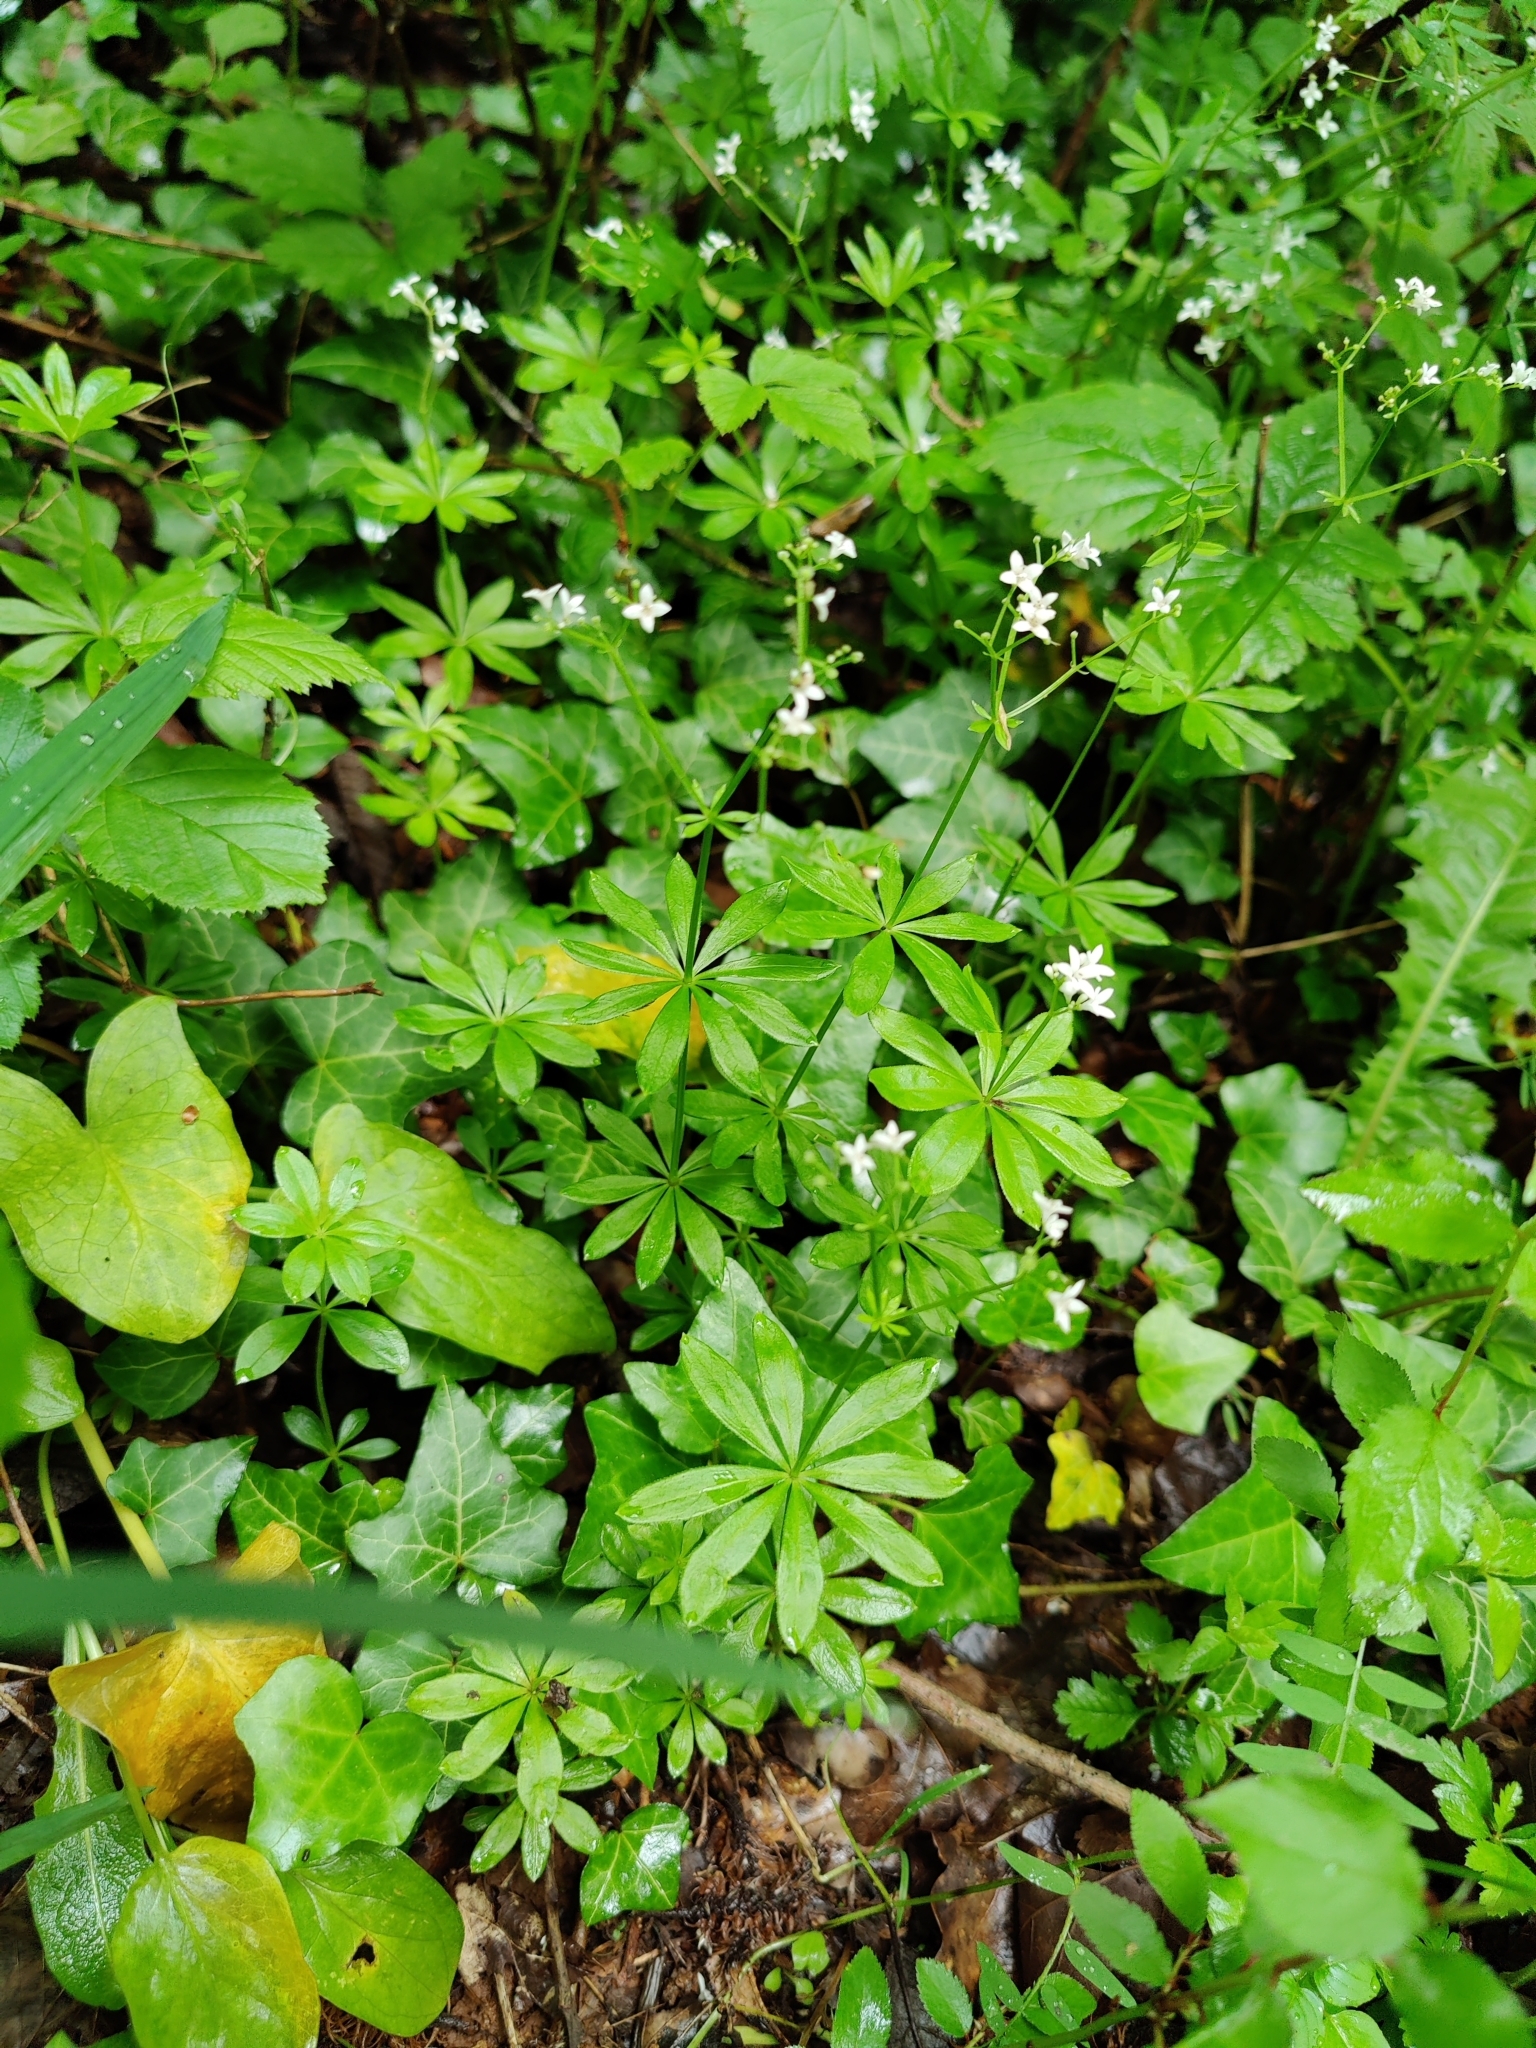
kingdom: Plantae
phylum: Tracheophyta
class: Magnoliopsida
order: Gentianales
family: Rubiaceae
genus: Galium
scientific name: Galium odoratum
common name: Sweet woodruff
